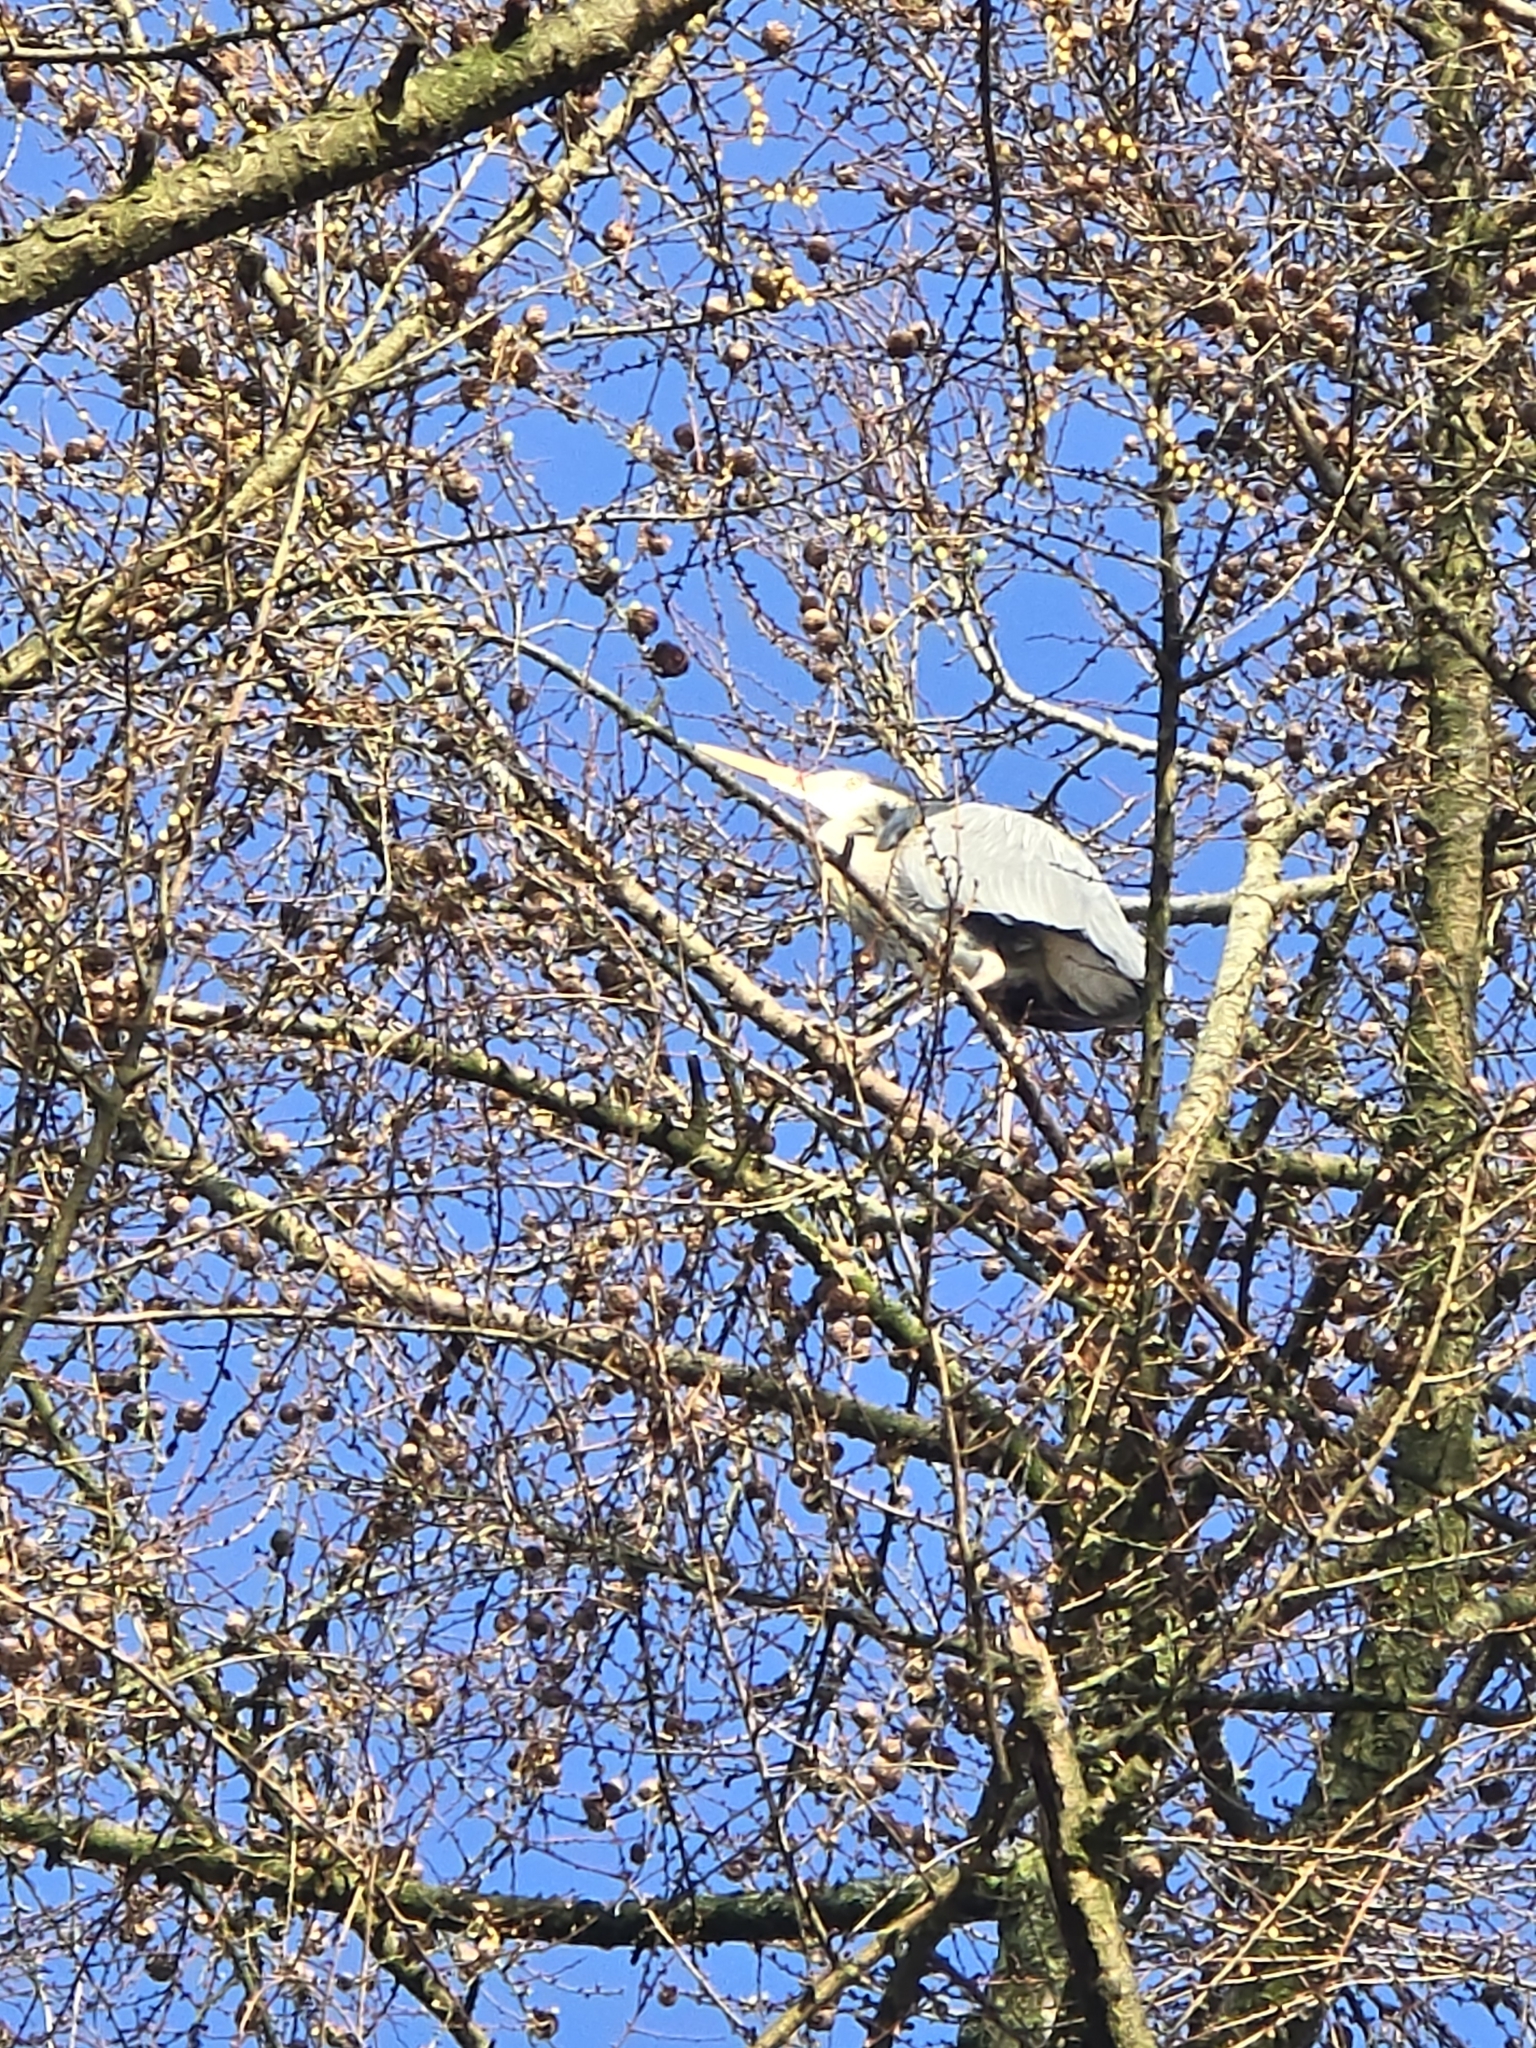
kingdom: Animalia
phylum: Chordata
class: Aves
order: Pelecaniformes
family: Ardeidae
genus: Ardea
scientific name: Ardea cinerea
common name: Grey heron
